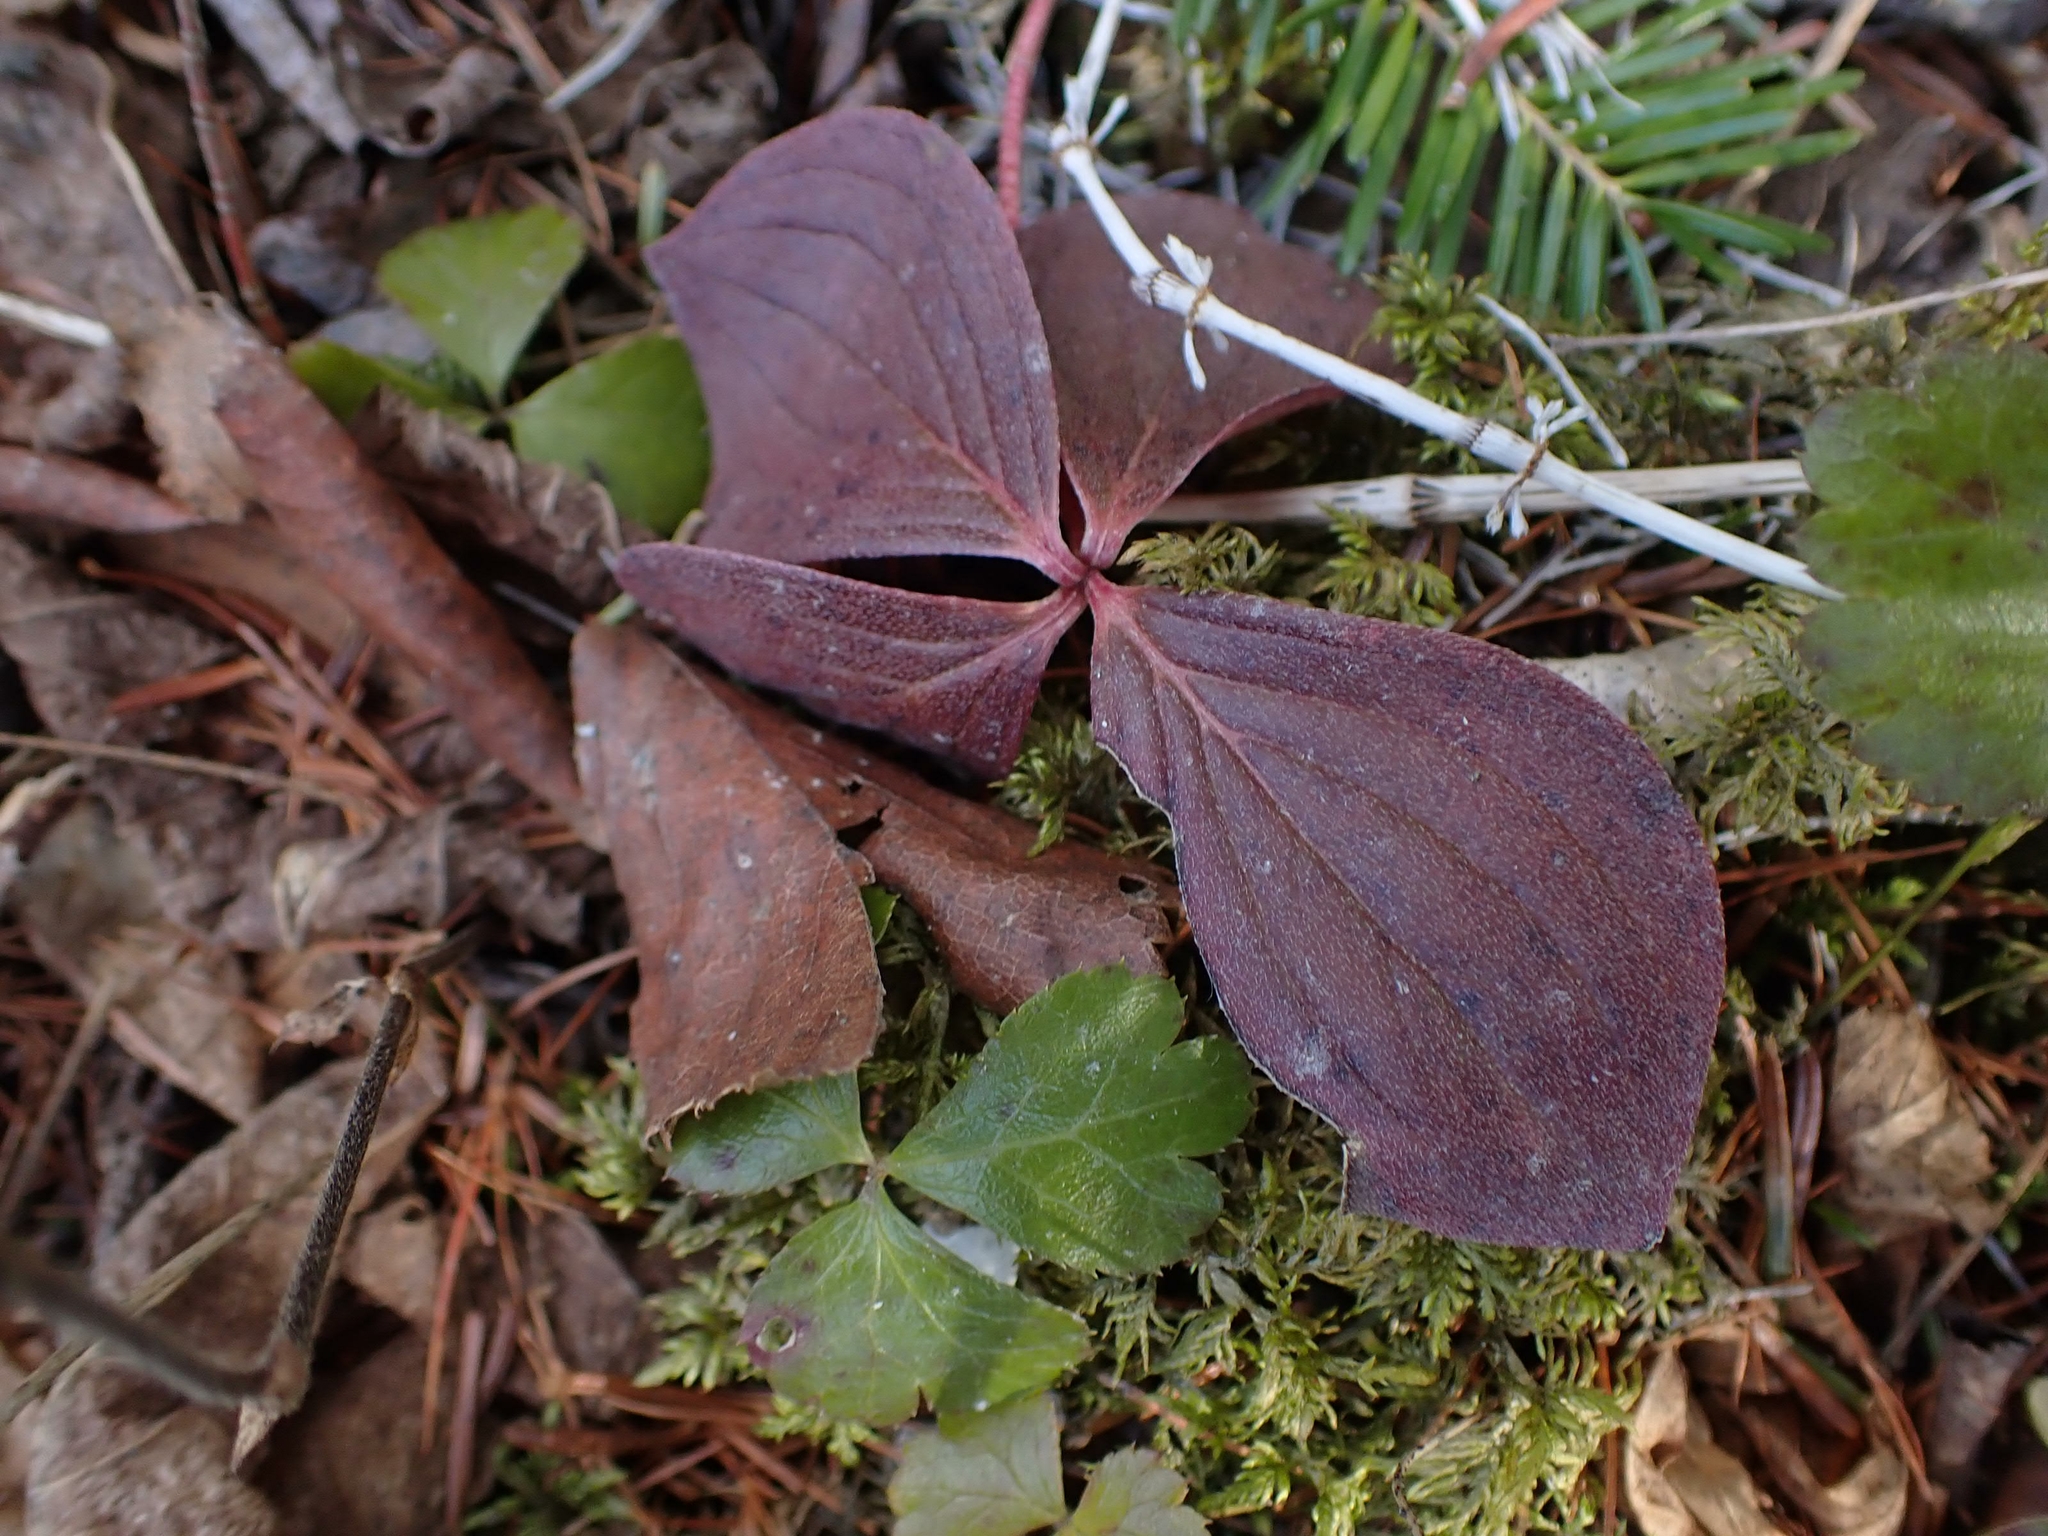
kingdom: Plantae
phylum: Tracheophyta
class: Magnoliopsida
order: Cornales
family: Cornaceae
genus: Cornus
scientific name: Cornus canadensis
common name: Creeping dogwood
